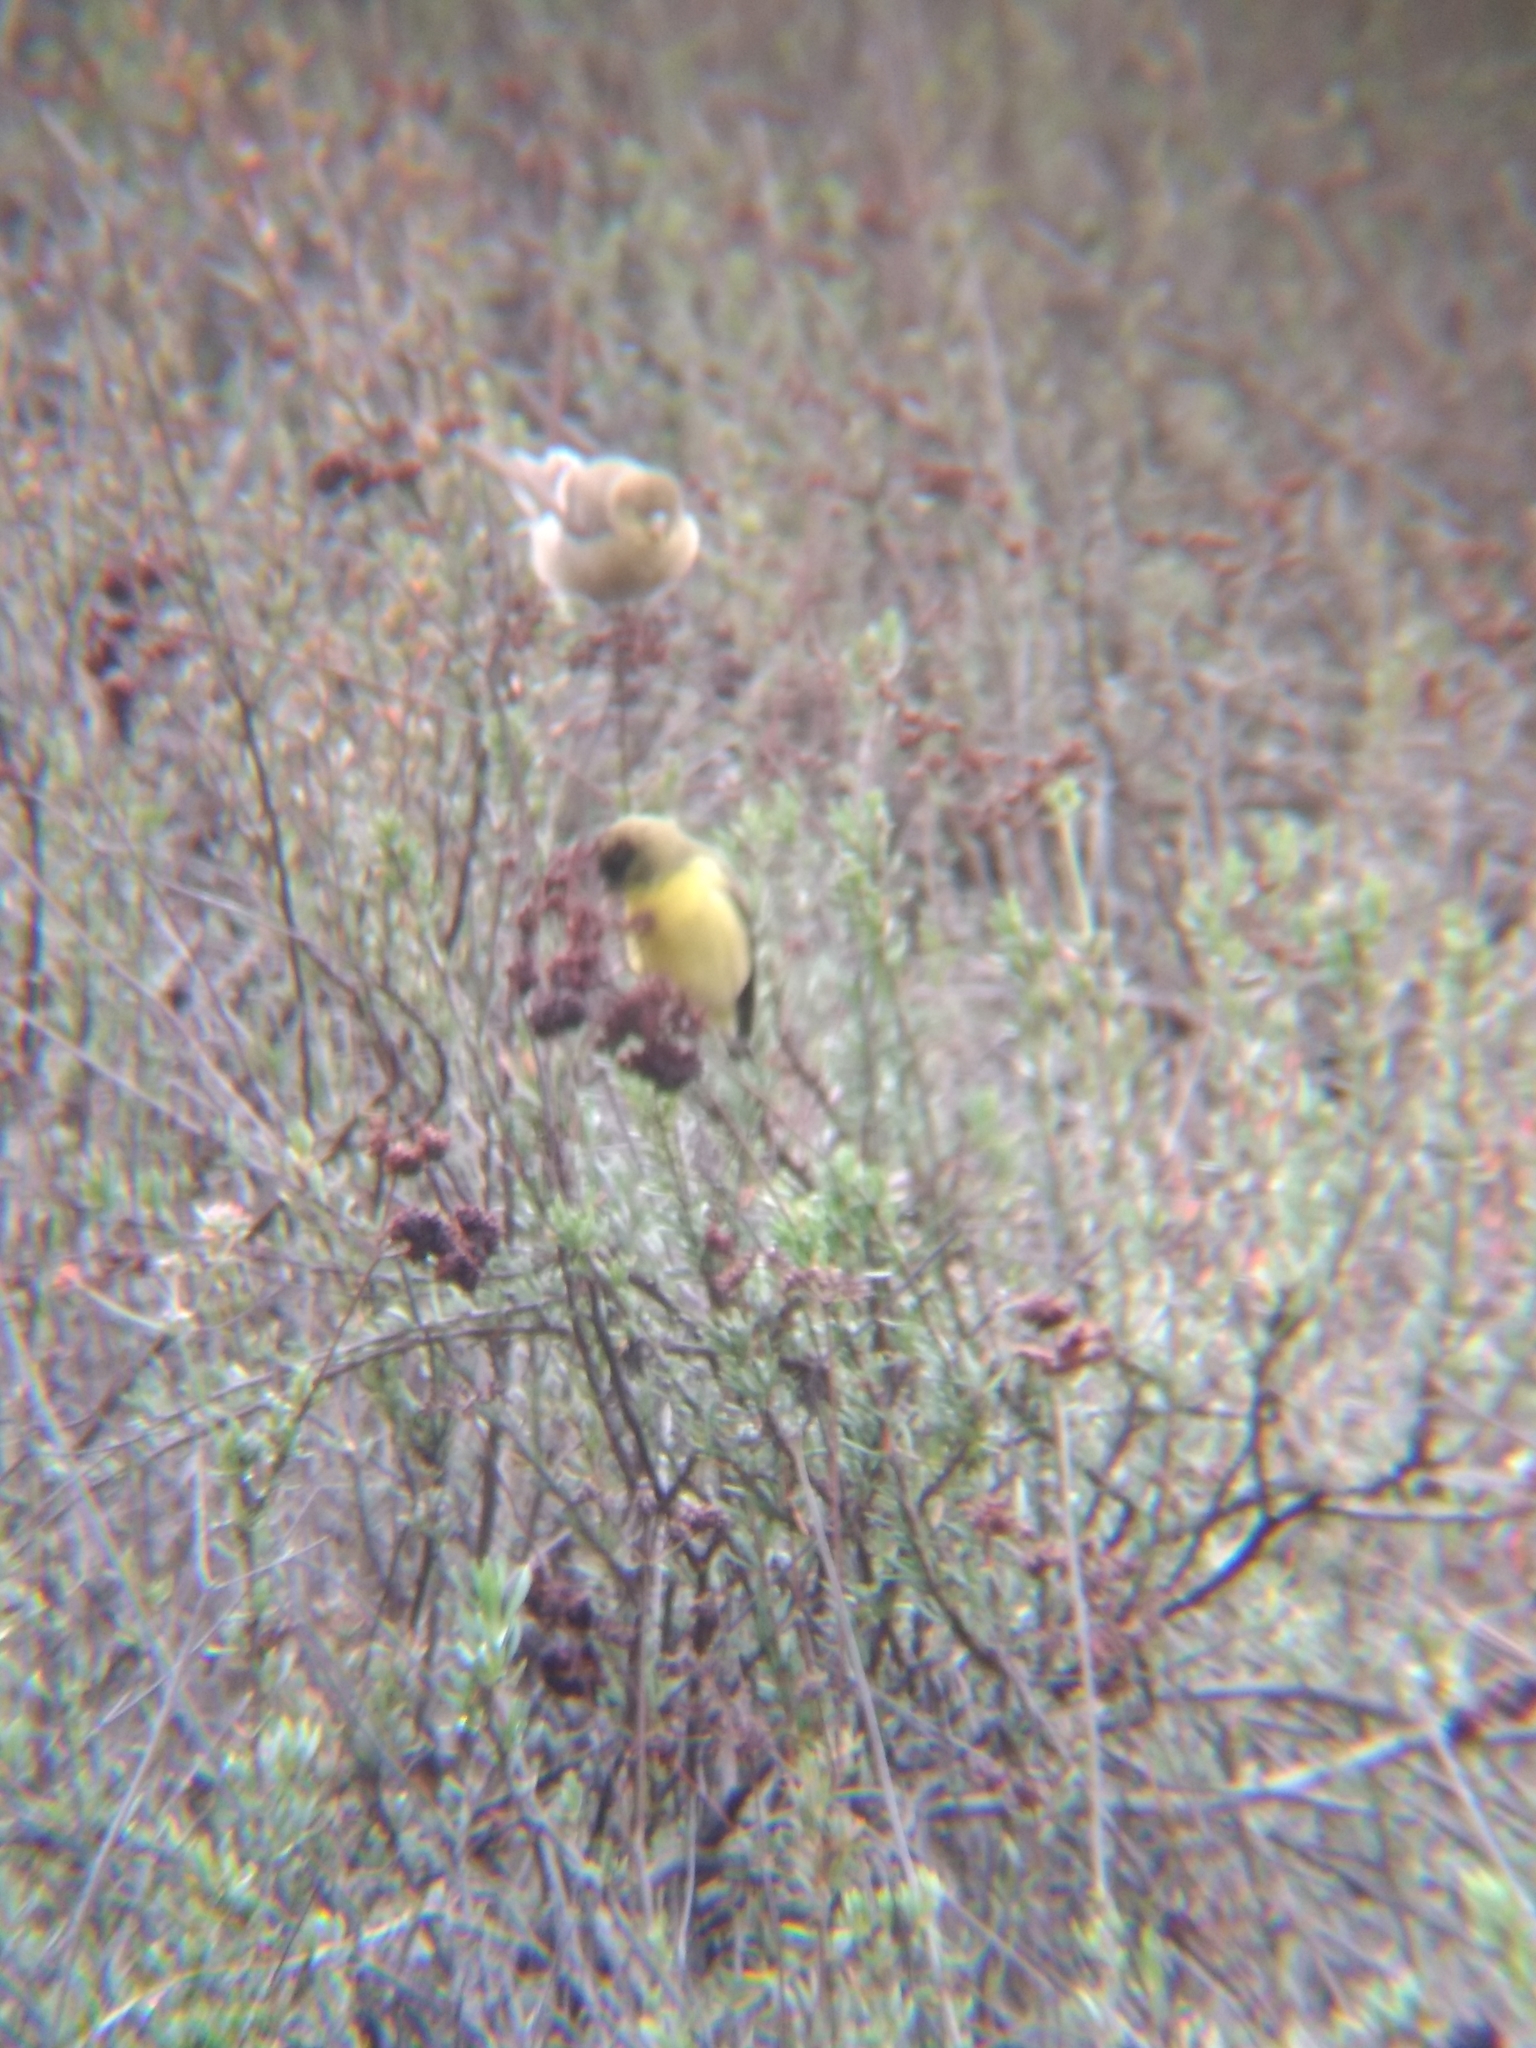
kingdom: Animalia
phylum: Chordata
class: Aves
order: Passeriformes
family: Fringillidae
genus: Spinus
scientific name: Spinus psaltria
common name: Lesser goldfinch
